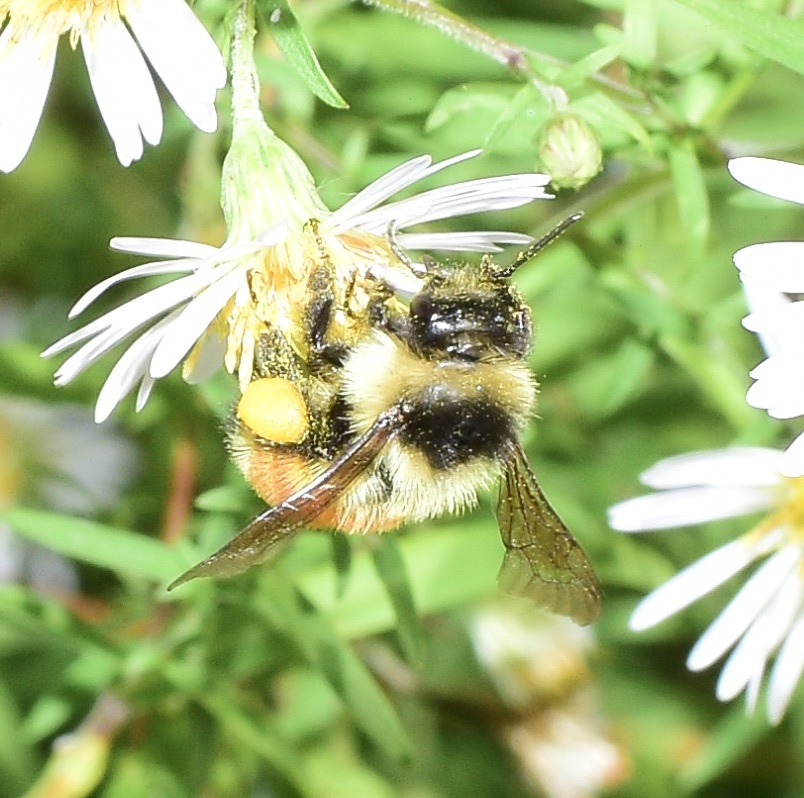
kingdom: Animalia
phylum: Arthropoda
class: Insecta
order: Hymenoptera
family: Apidae
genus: Bombus
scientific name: Bombus ternarius
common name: Tri-colored bumble bee
